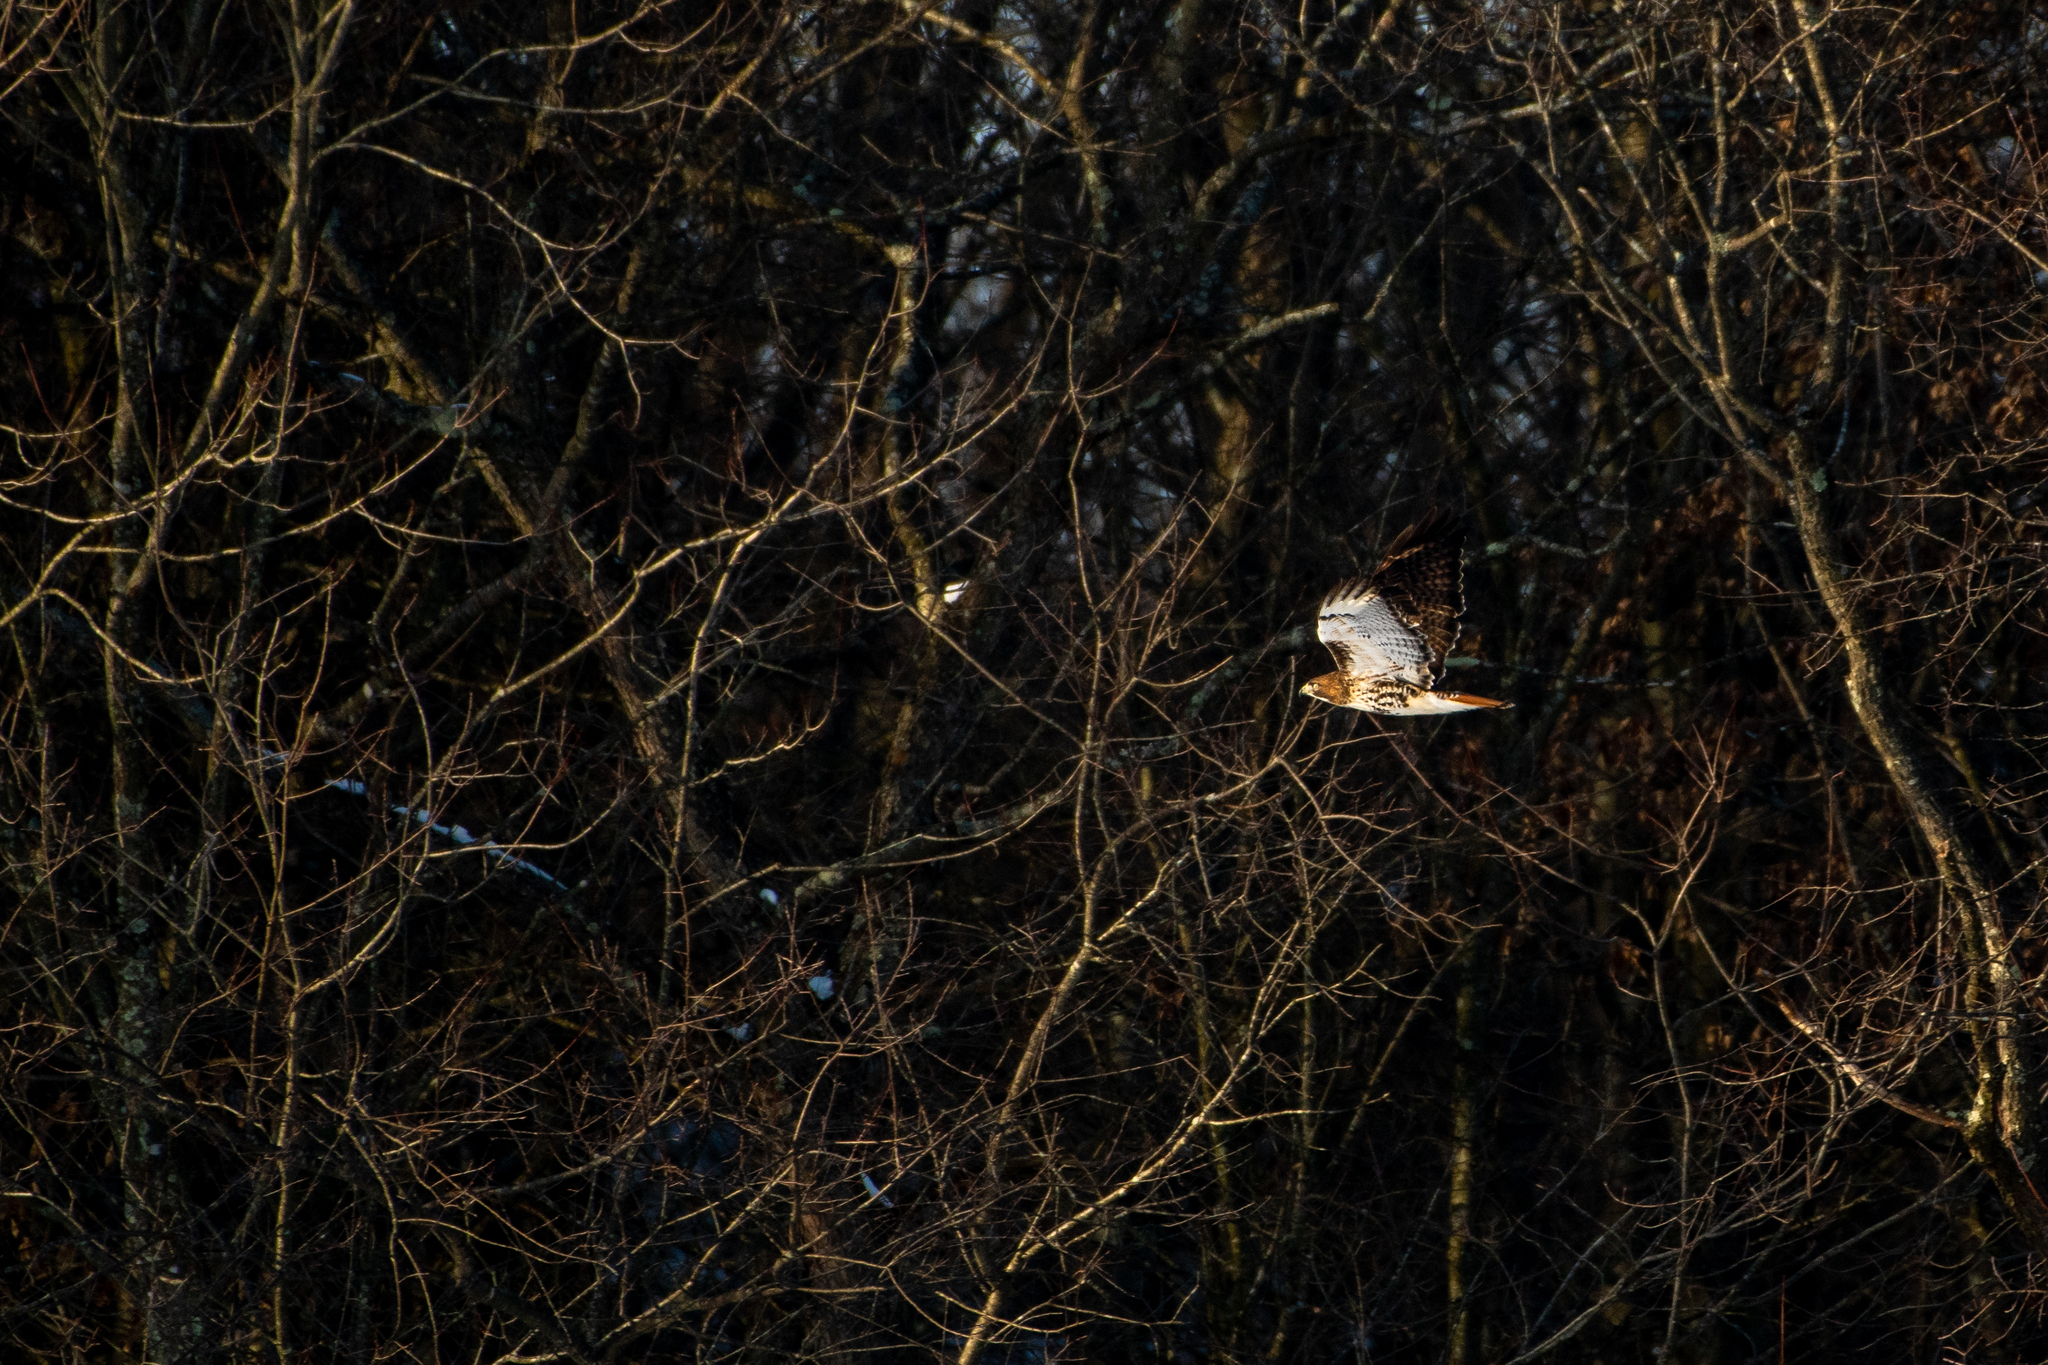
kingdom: Animalia
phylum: Chordata
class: Aves
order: Accipitriformes
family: Accipitridae
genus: Buteo
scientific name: Buteo jamaicensis
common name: Red-tailed hawk
